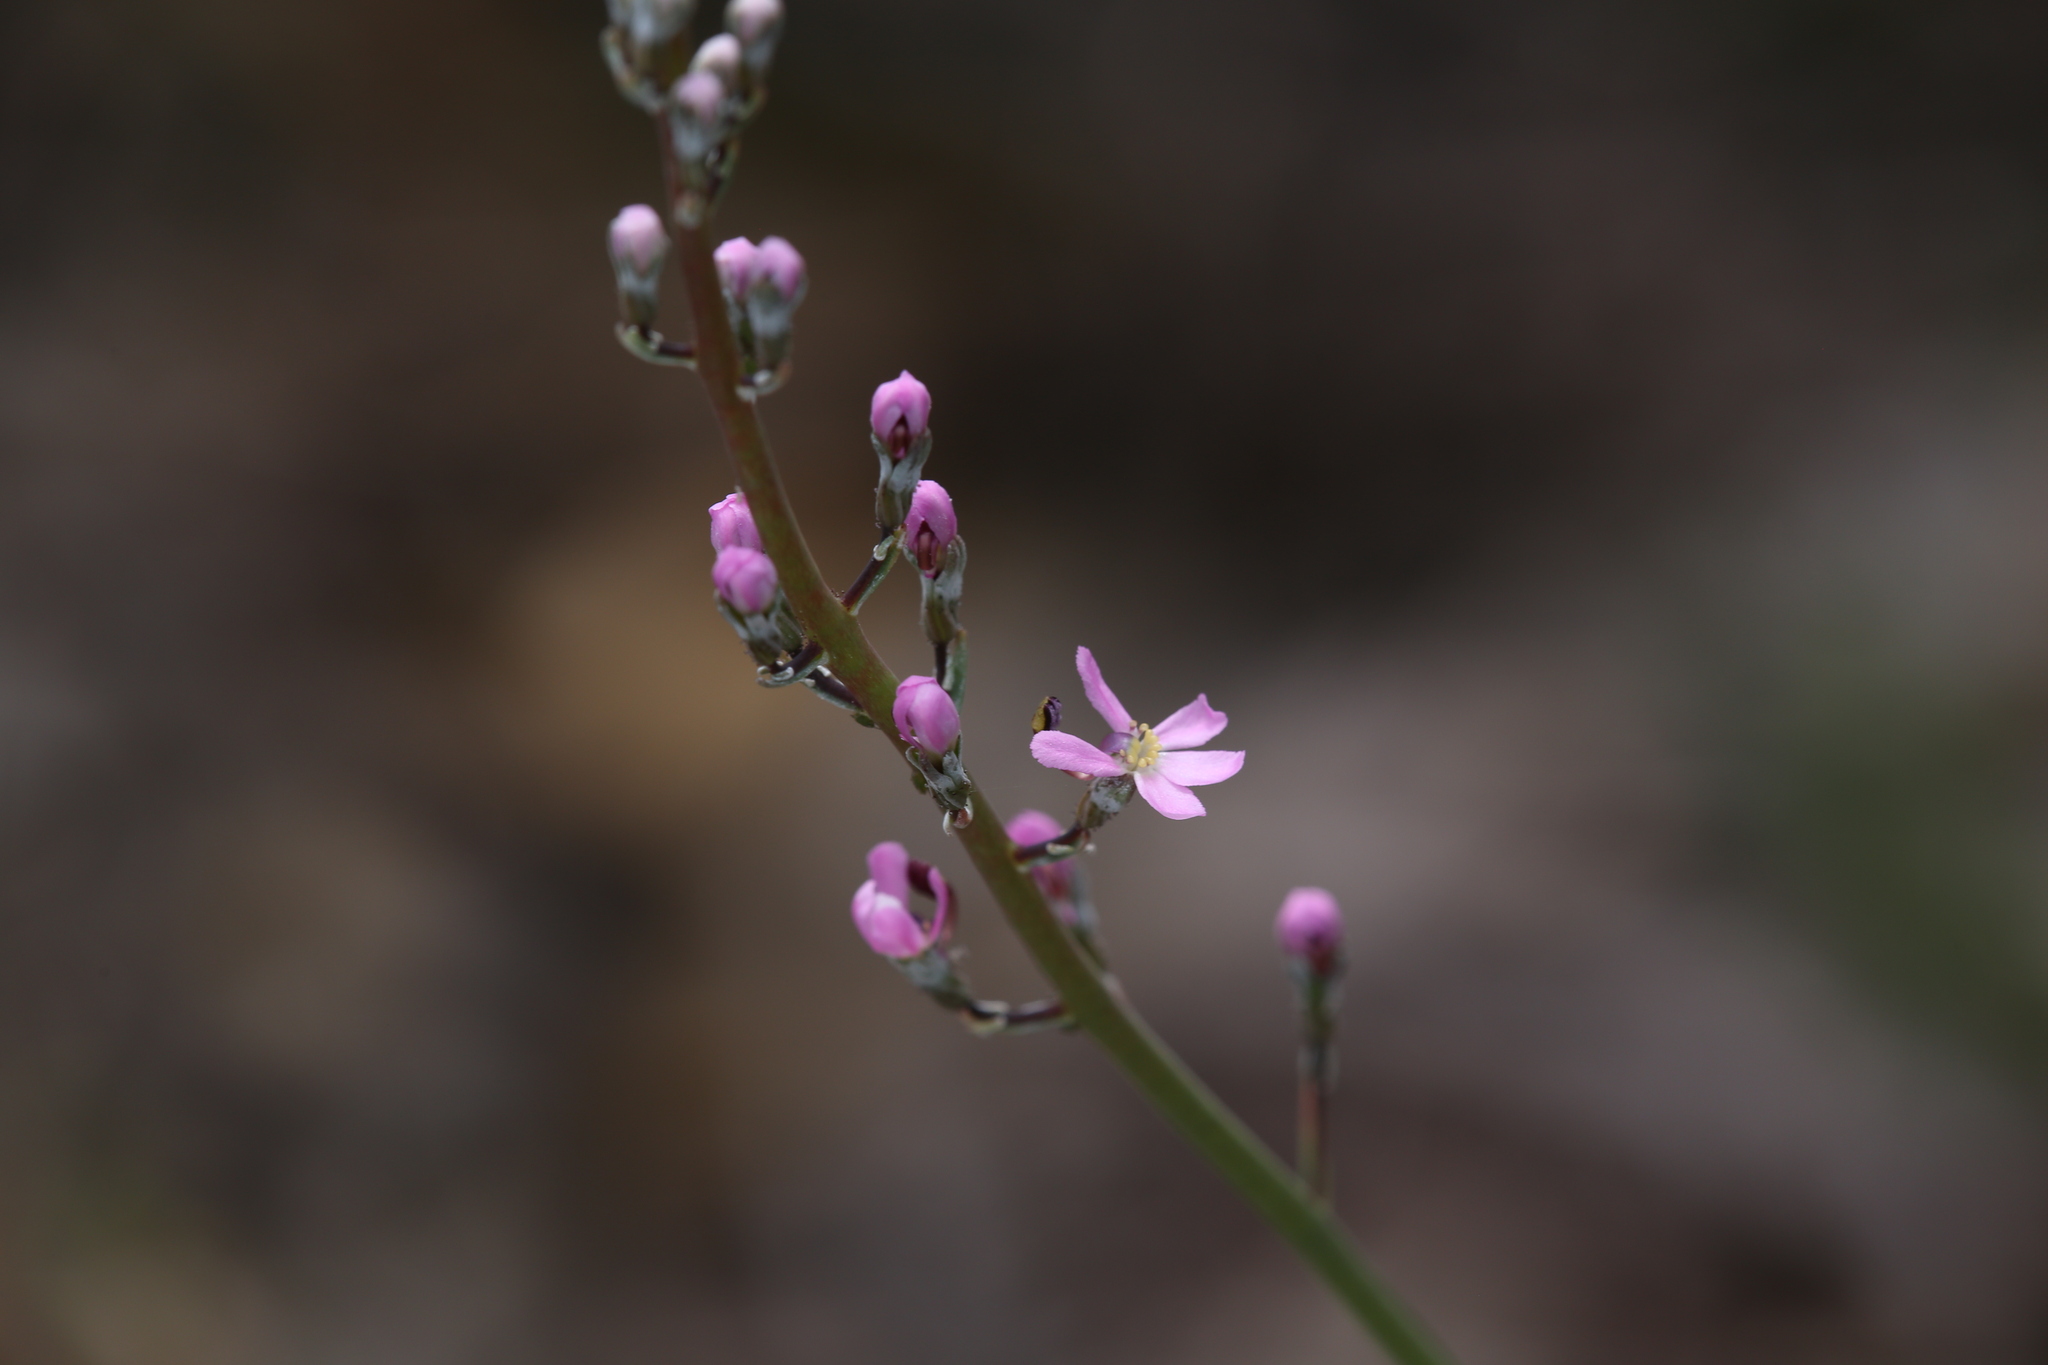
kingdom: Plantae
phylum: Tracheophyta
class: Magnoliopsida
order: Asterales
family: Stylidiaceae
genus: Stylidium
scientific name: Stylidium araeophyllum
